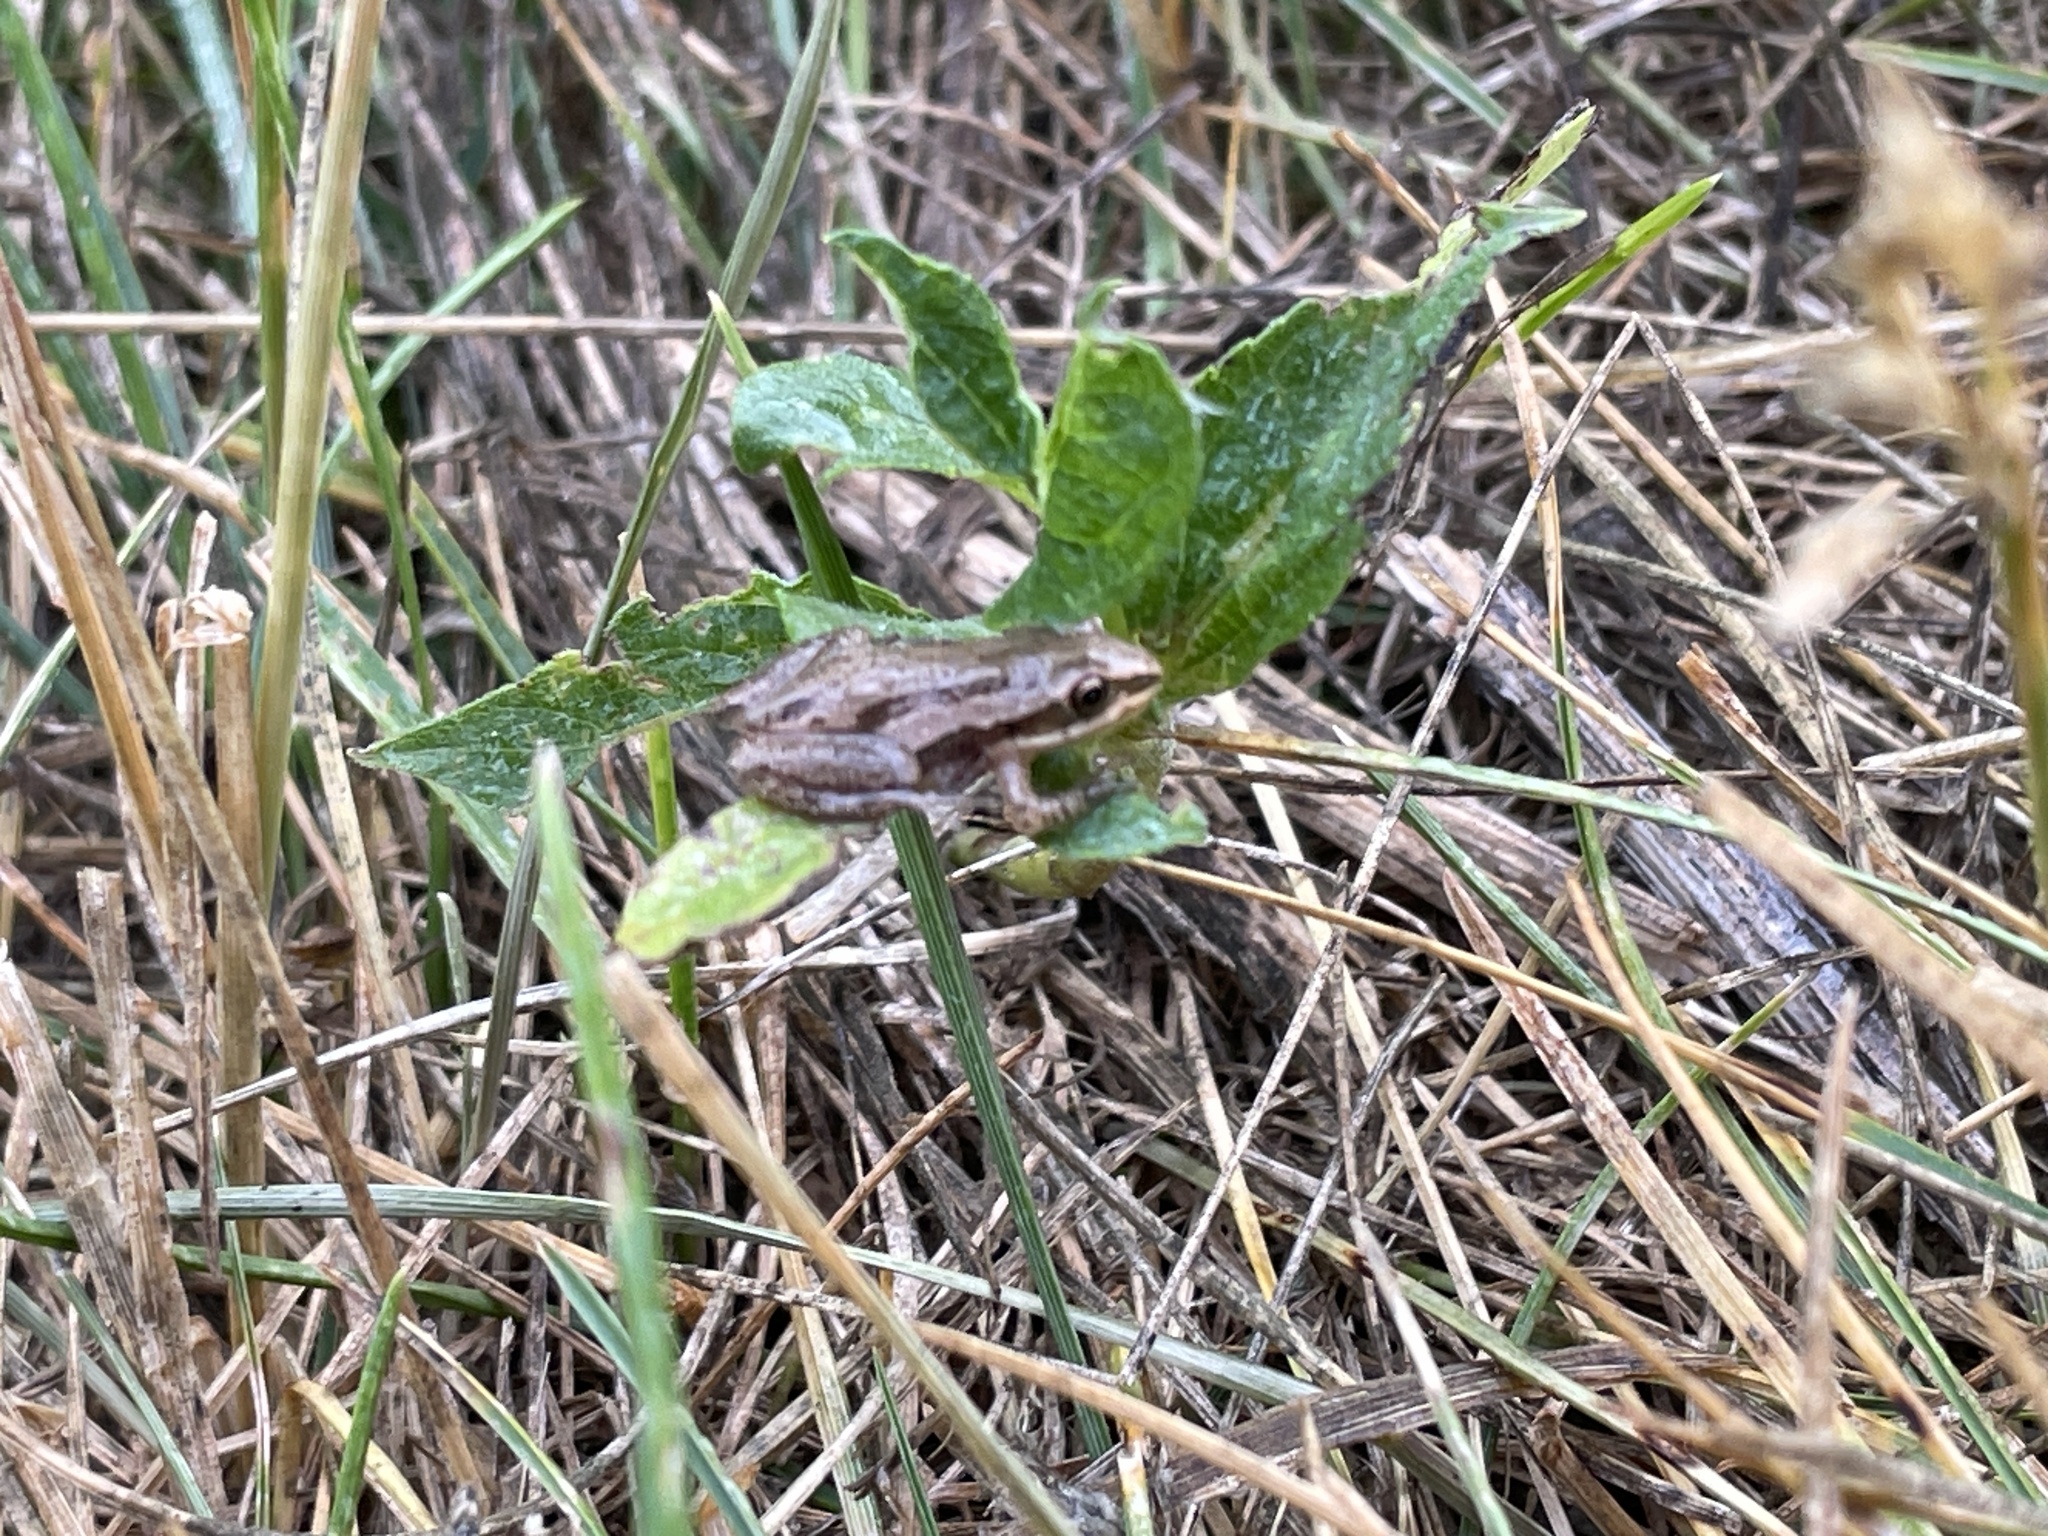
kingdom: Animalia
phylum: Chordata
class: Amphibia
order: Anura
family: Hylidae
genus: Pseudacris
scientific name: Pseudacris maculata
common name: Boreal chorus frog
